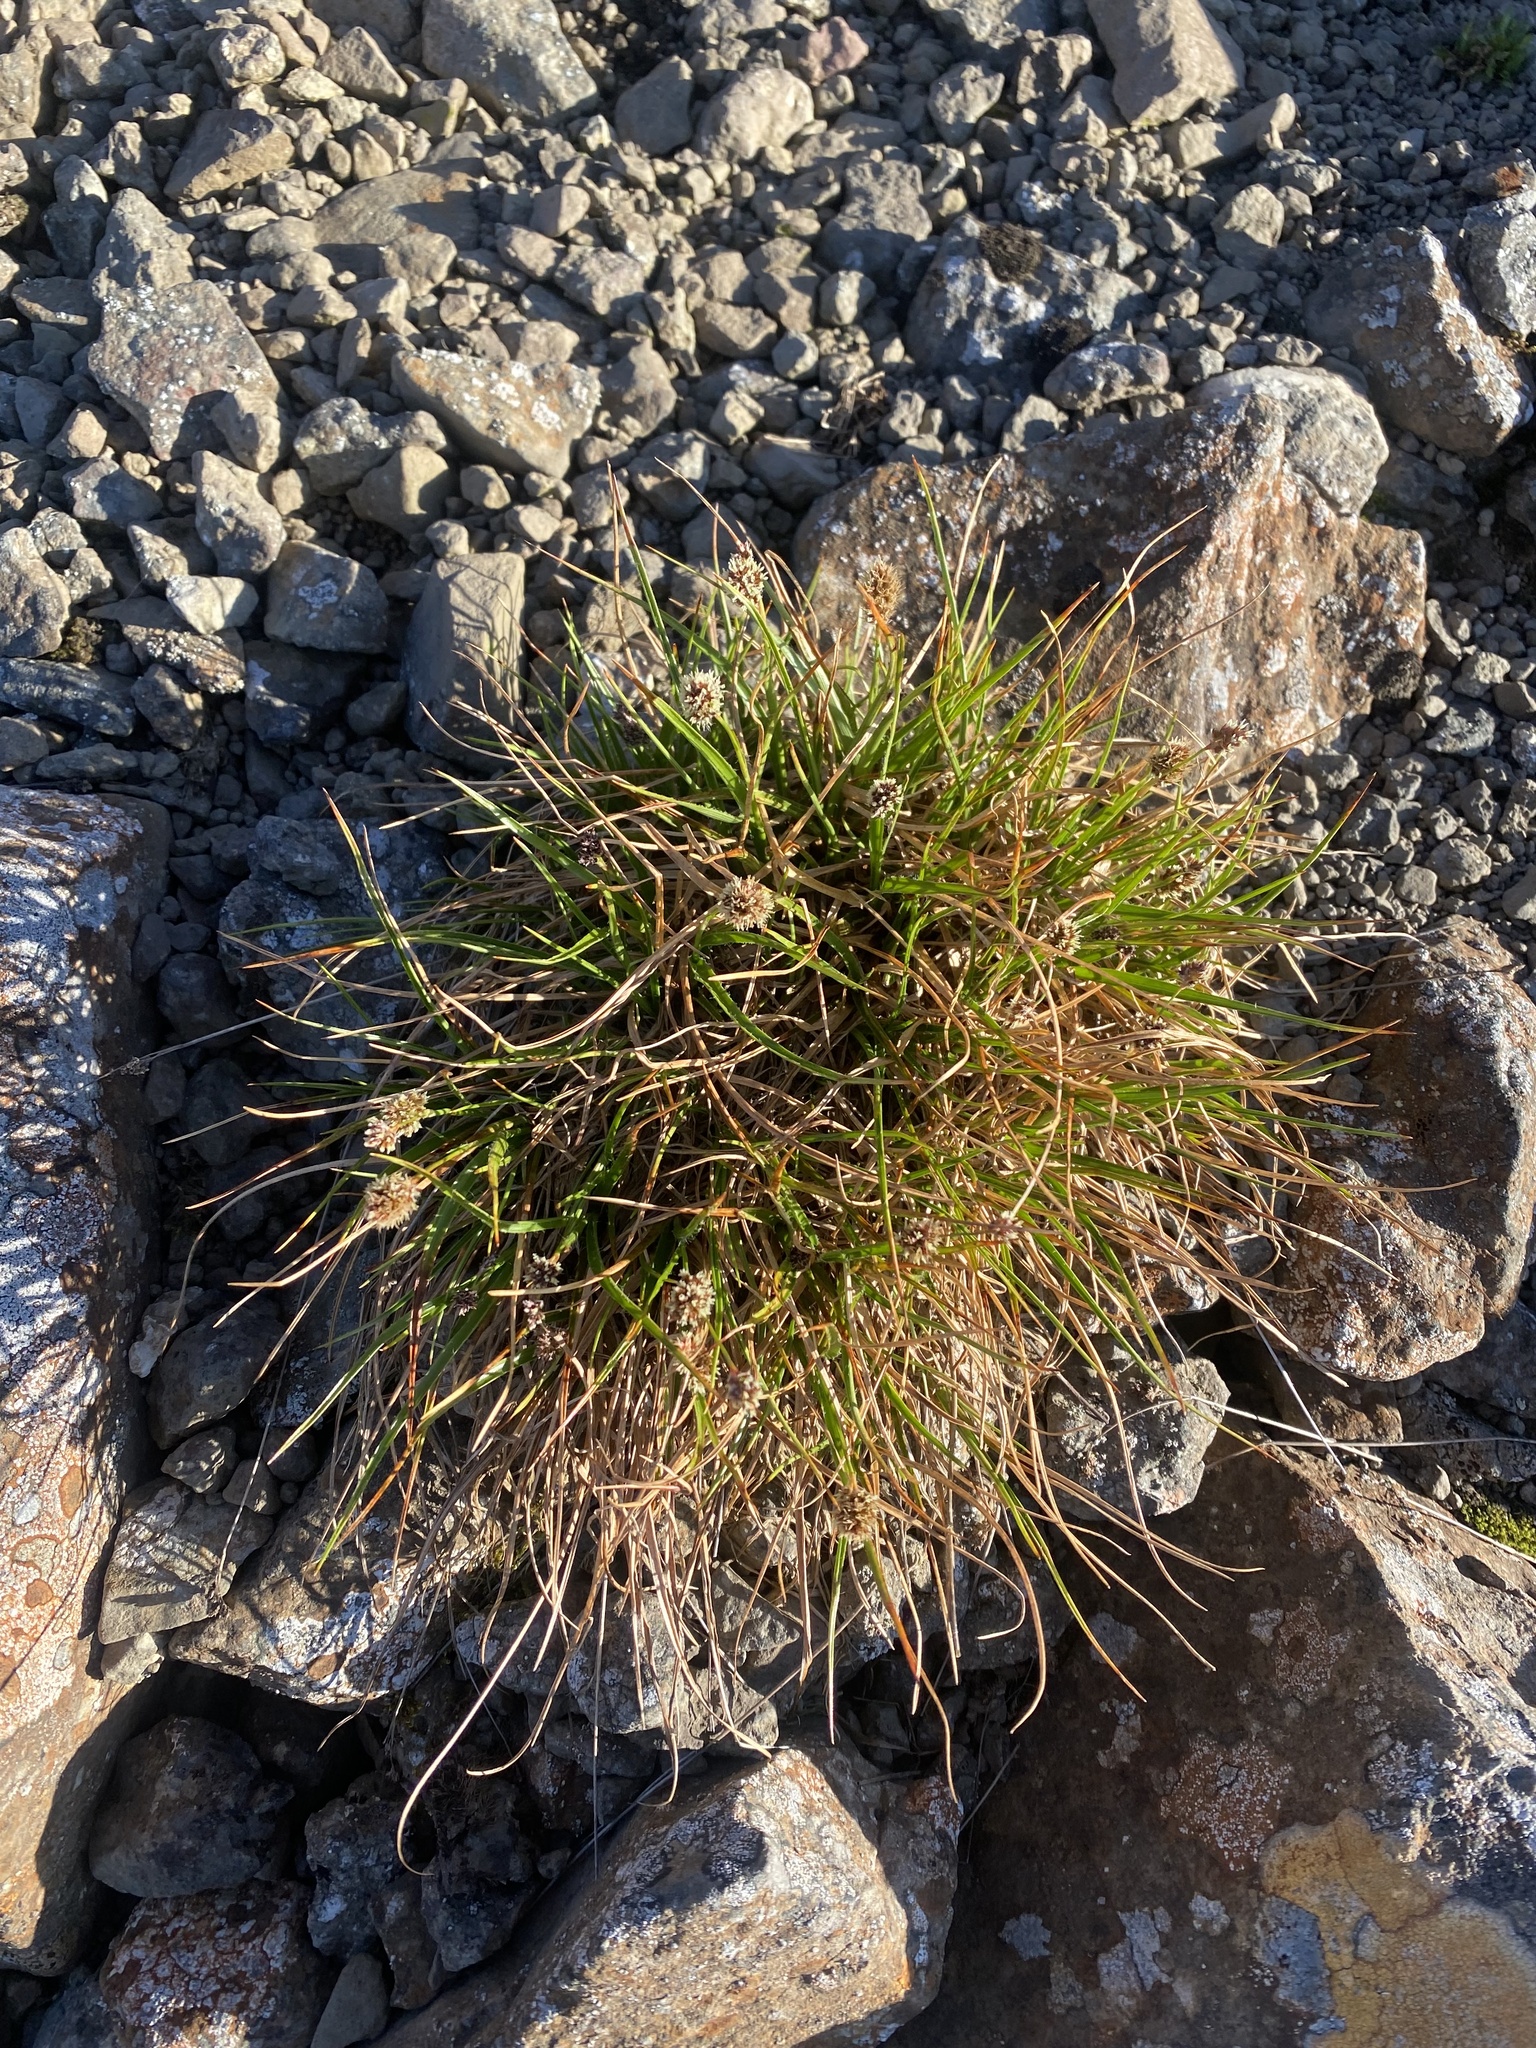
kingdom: Plantae
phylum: Tracheophyta
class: Liliopsida
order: Poales
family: Juncaceae
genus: Luzula
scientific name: Luzula confusa
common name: Northern wood rush
